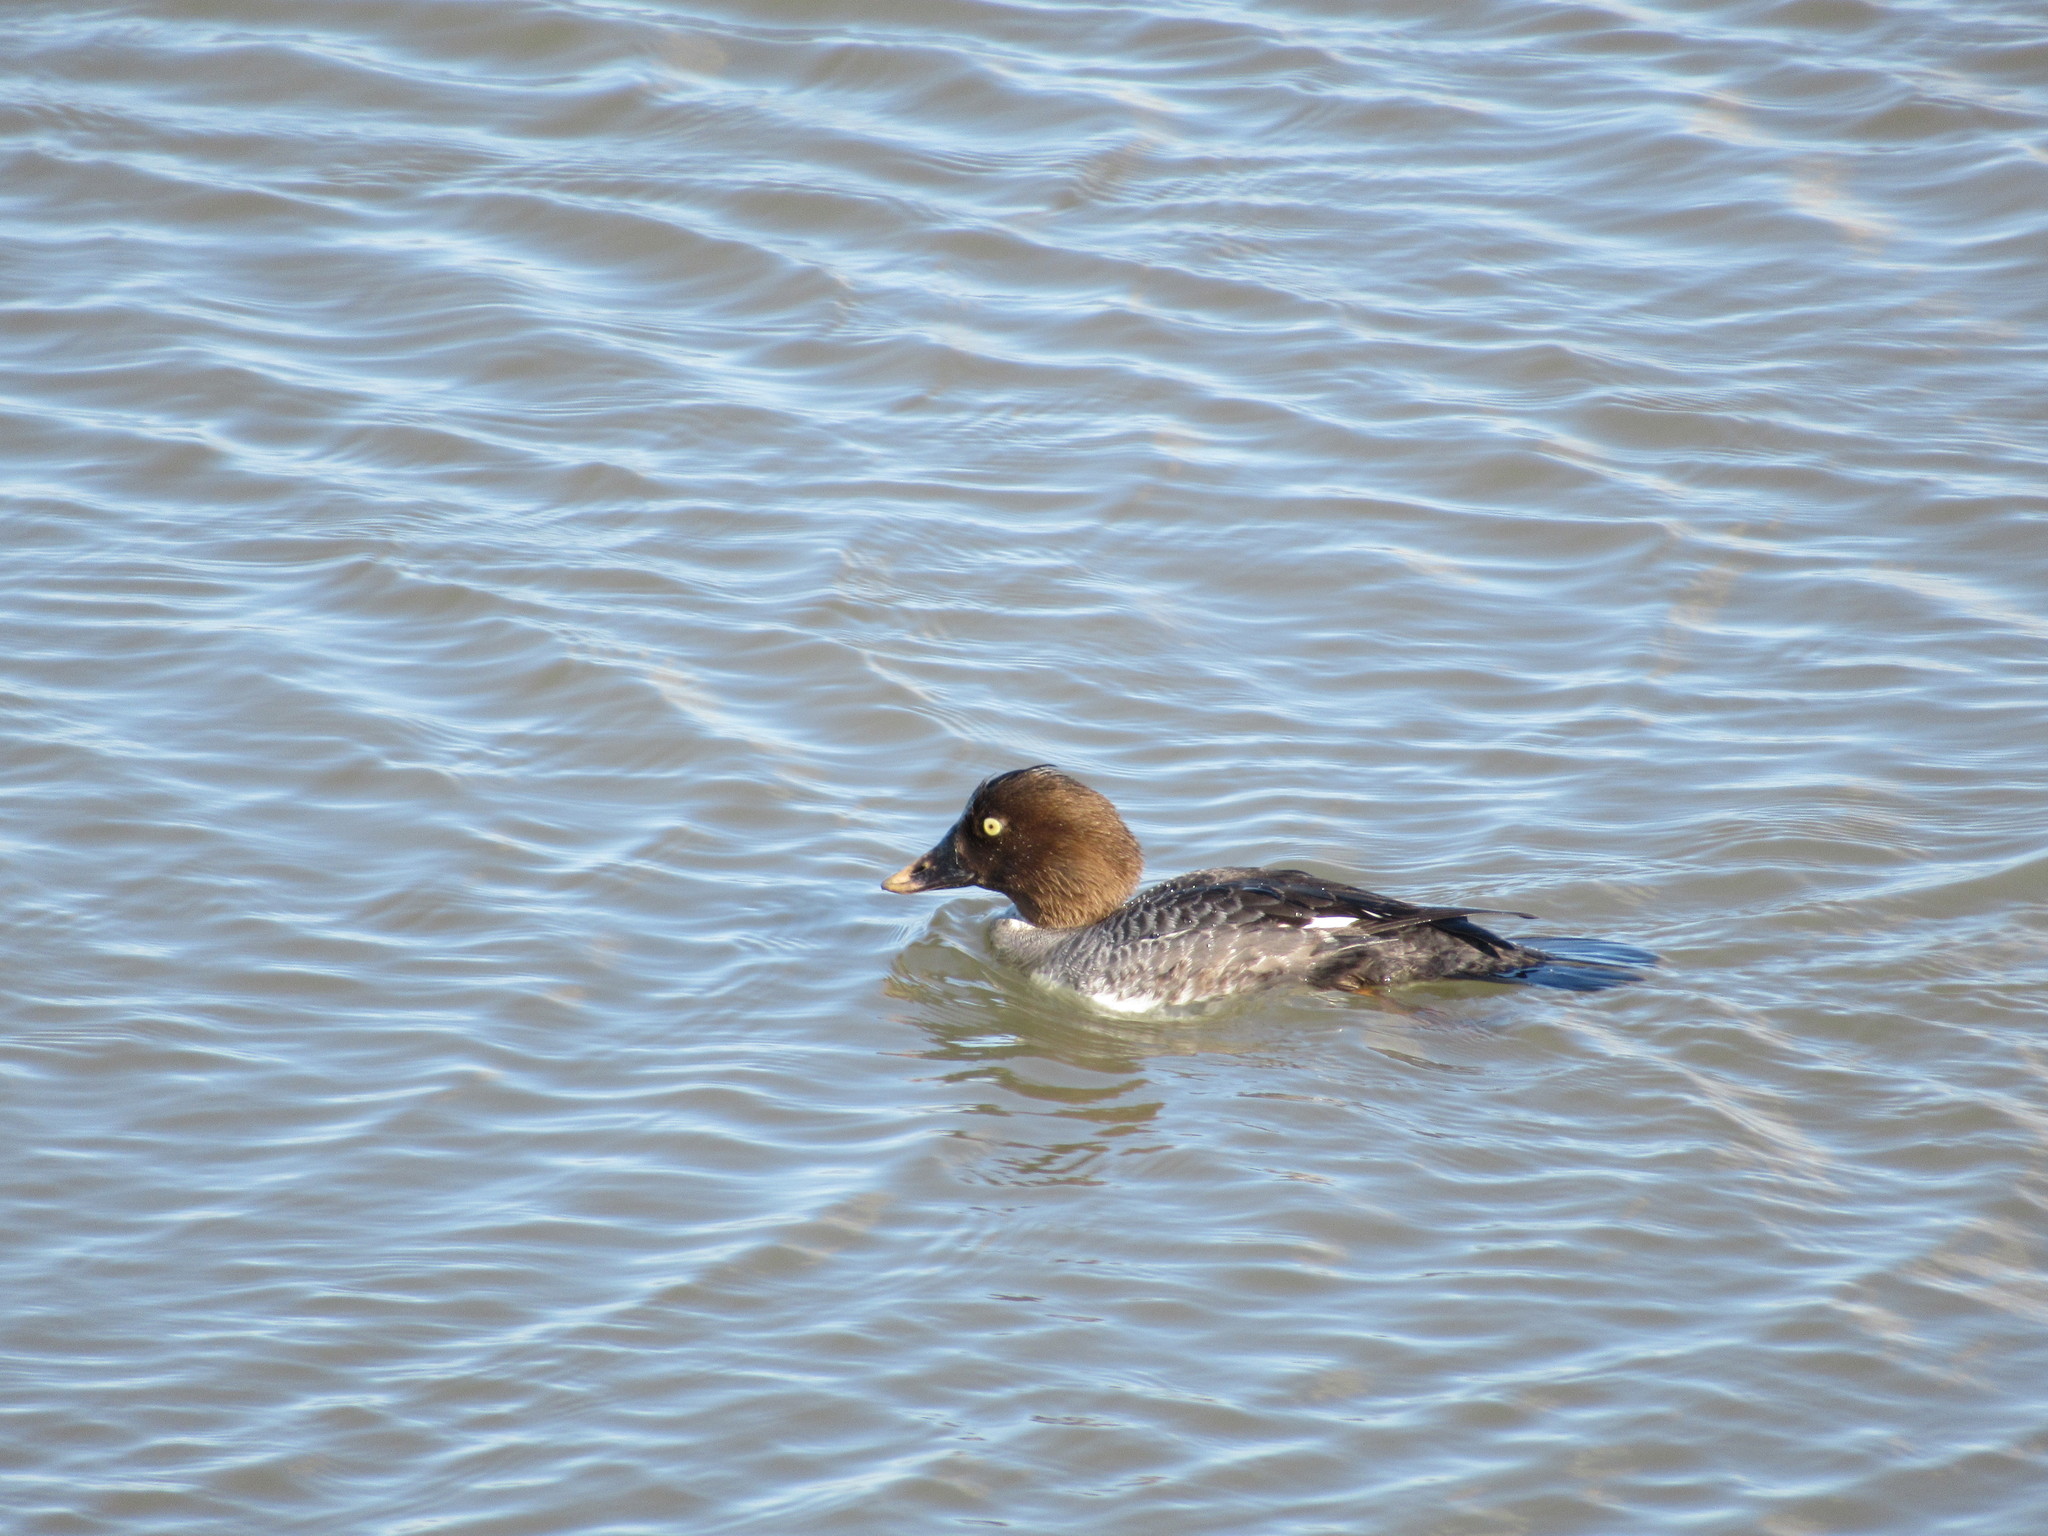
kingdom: Animalia
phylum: Chordata
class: Aves
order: Anseriformes
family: Anatidae
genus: Bucephala
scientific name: Bucephala clangula
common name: Common goldeneye
